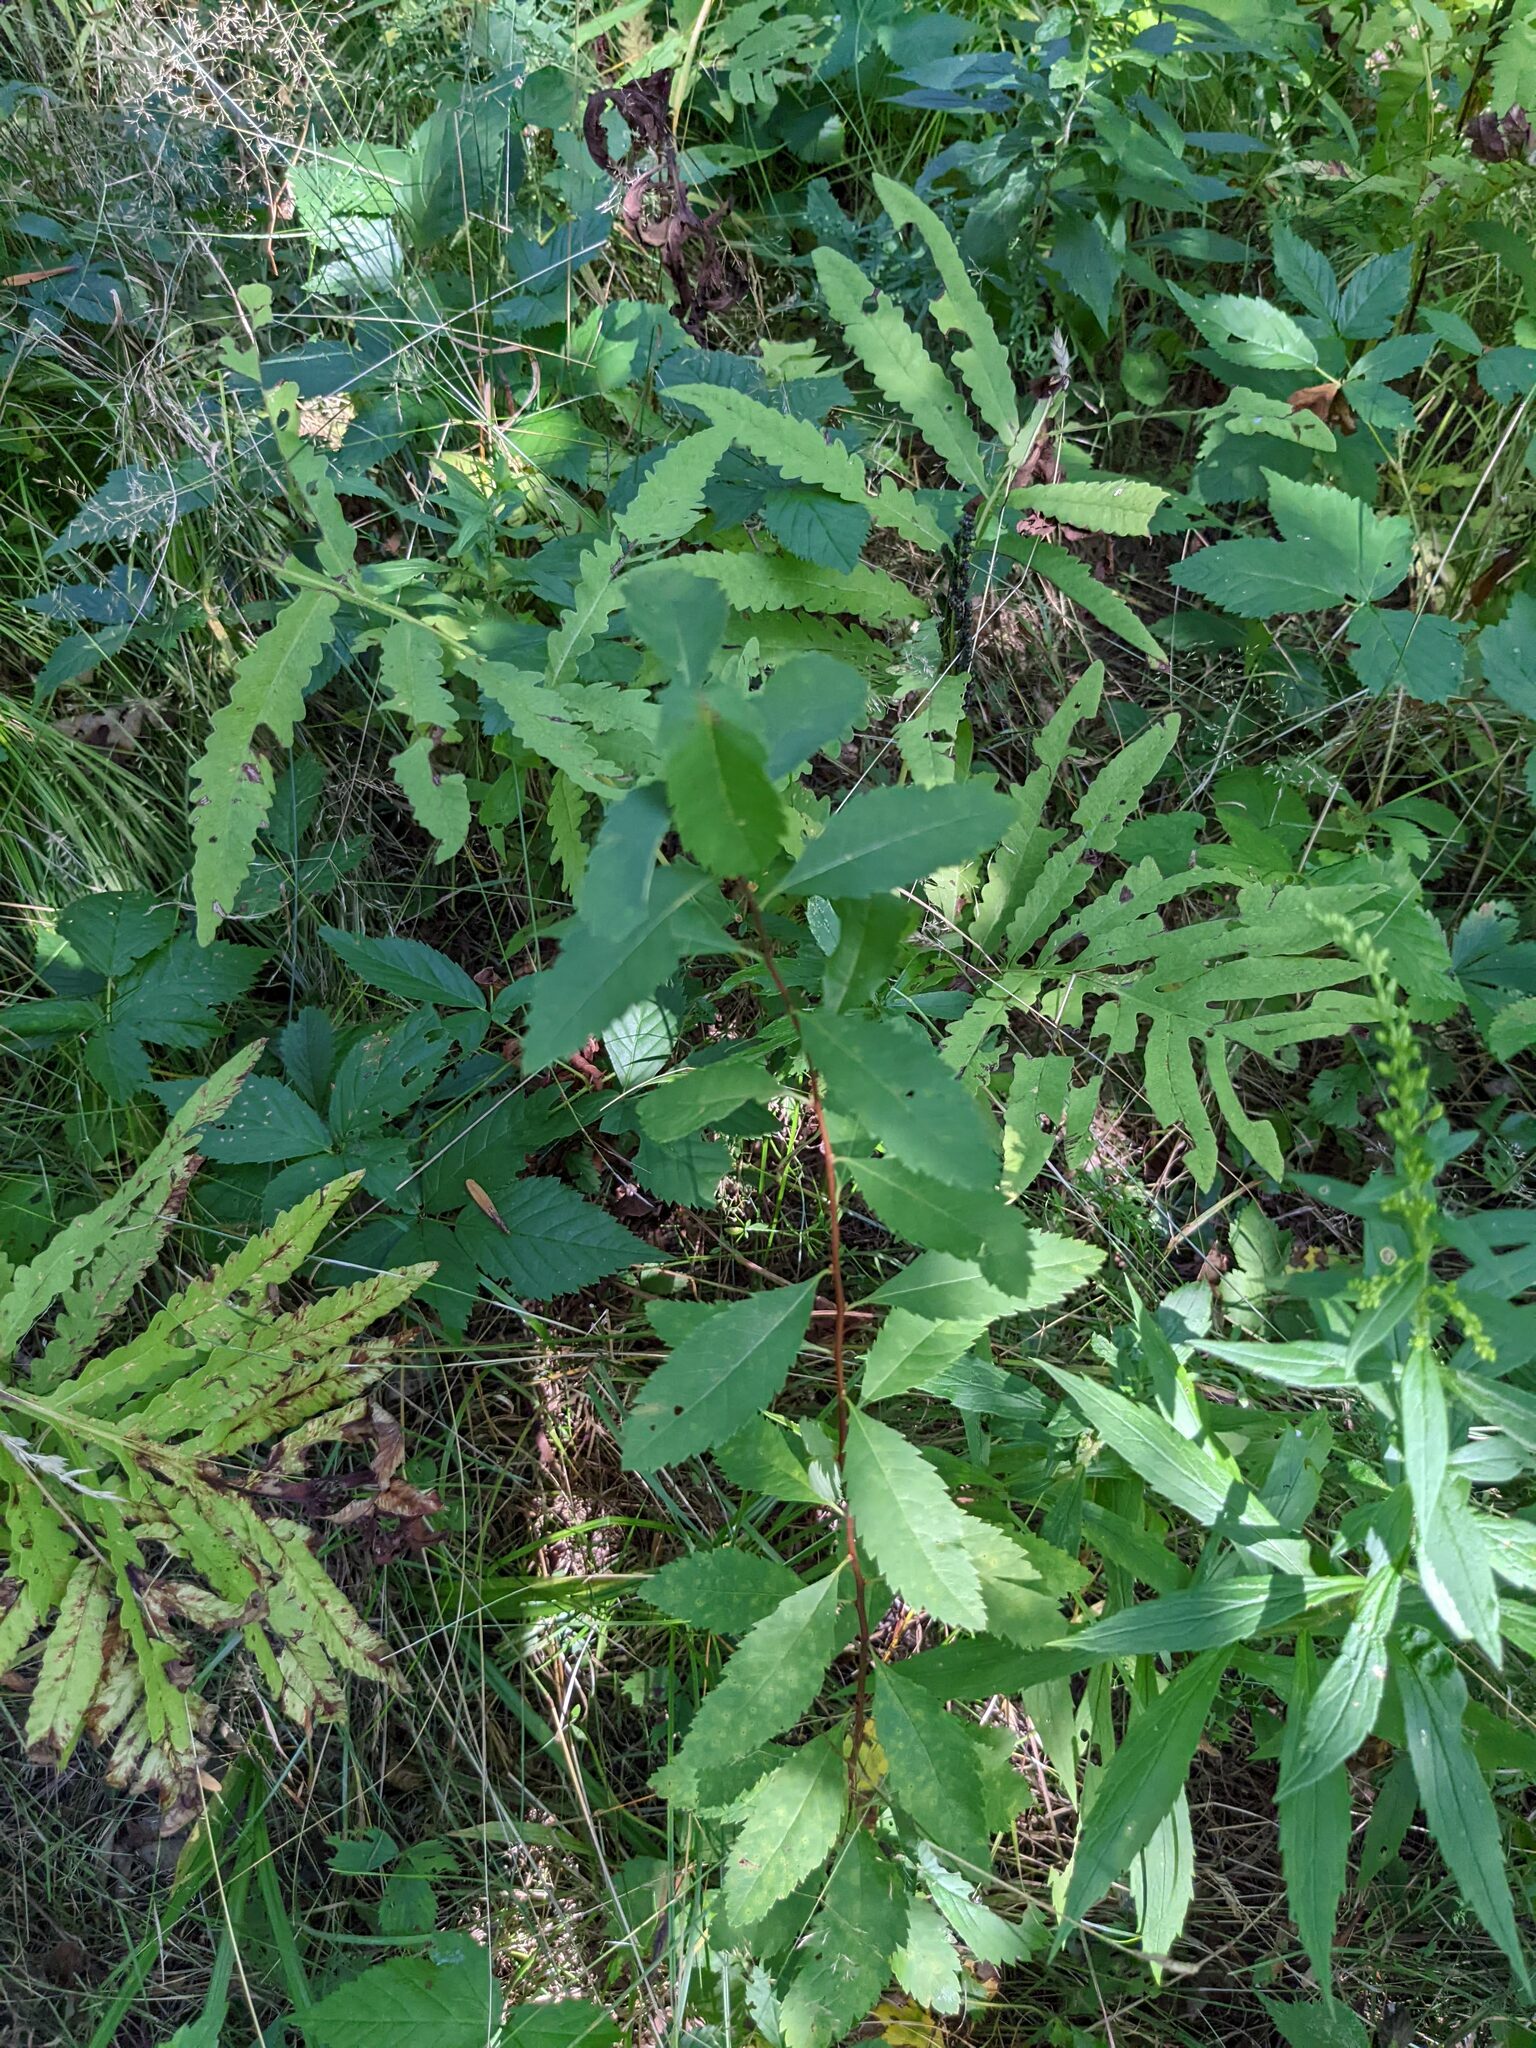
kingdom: Plantae
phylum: Tracheophyta
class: Magnoliopsida
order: Rosales
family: Rosaceae
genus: Spiraea
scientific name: Spiraea alba
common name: Pale bridewort
